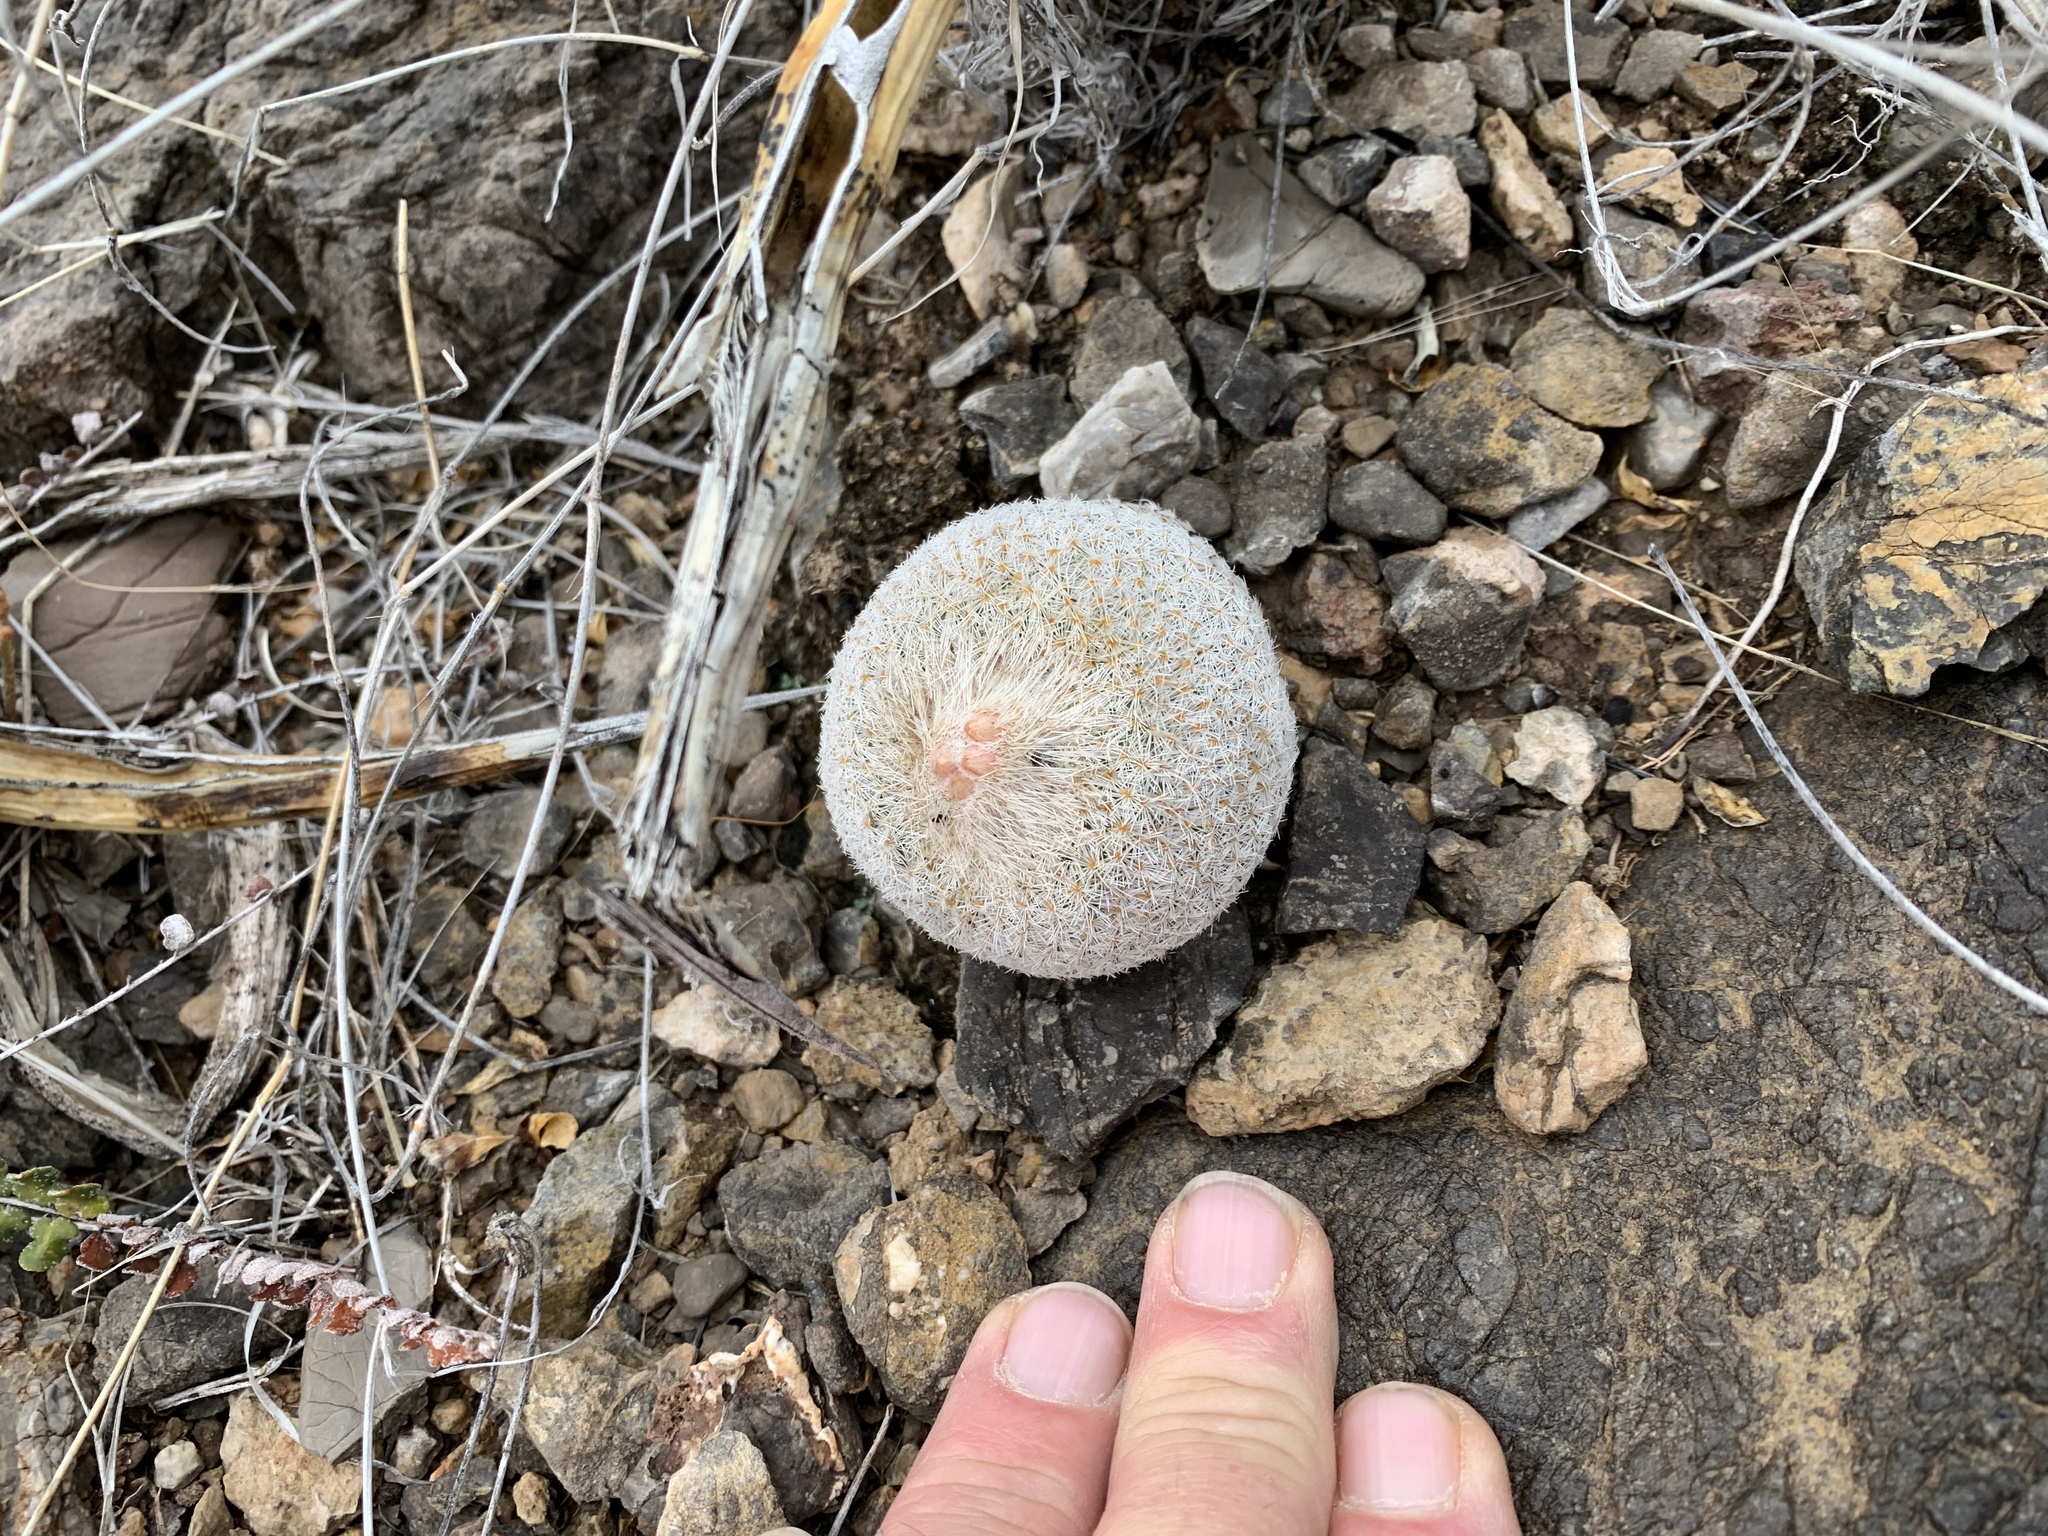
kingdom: Plantae
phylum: Tracheophyta
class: Magnoliopsida
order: Caryophyllales
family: Cactaceae
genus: Epithelantha
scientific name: Epithelantha micromeris
